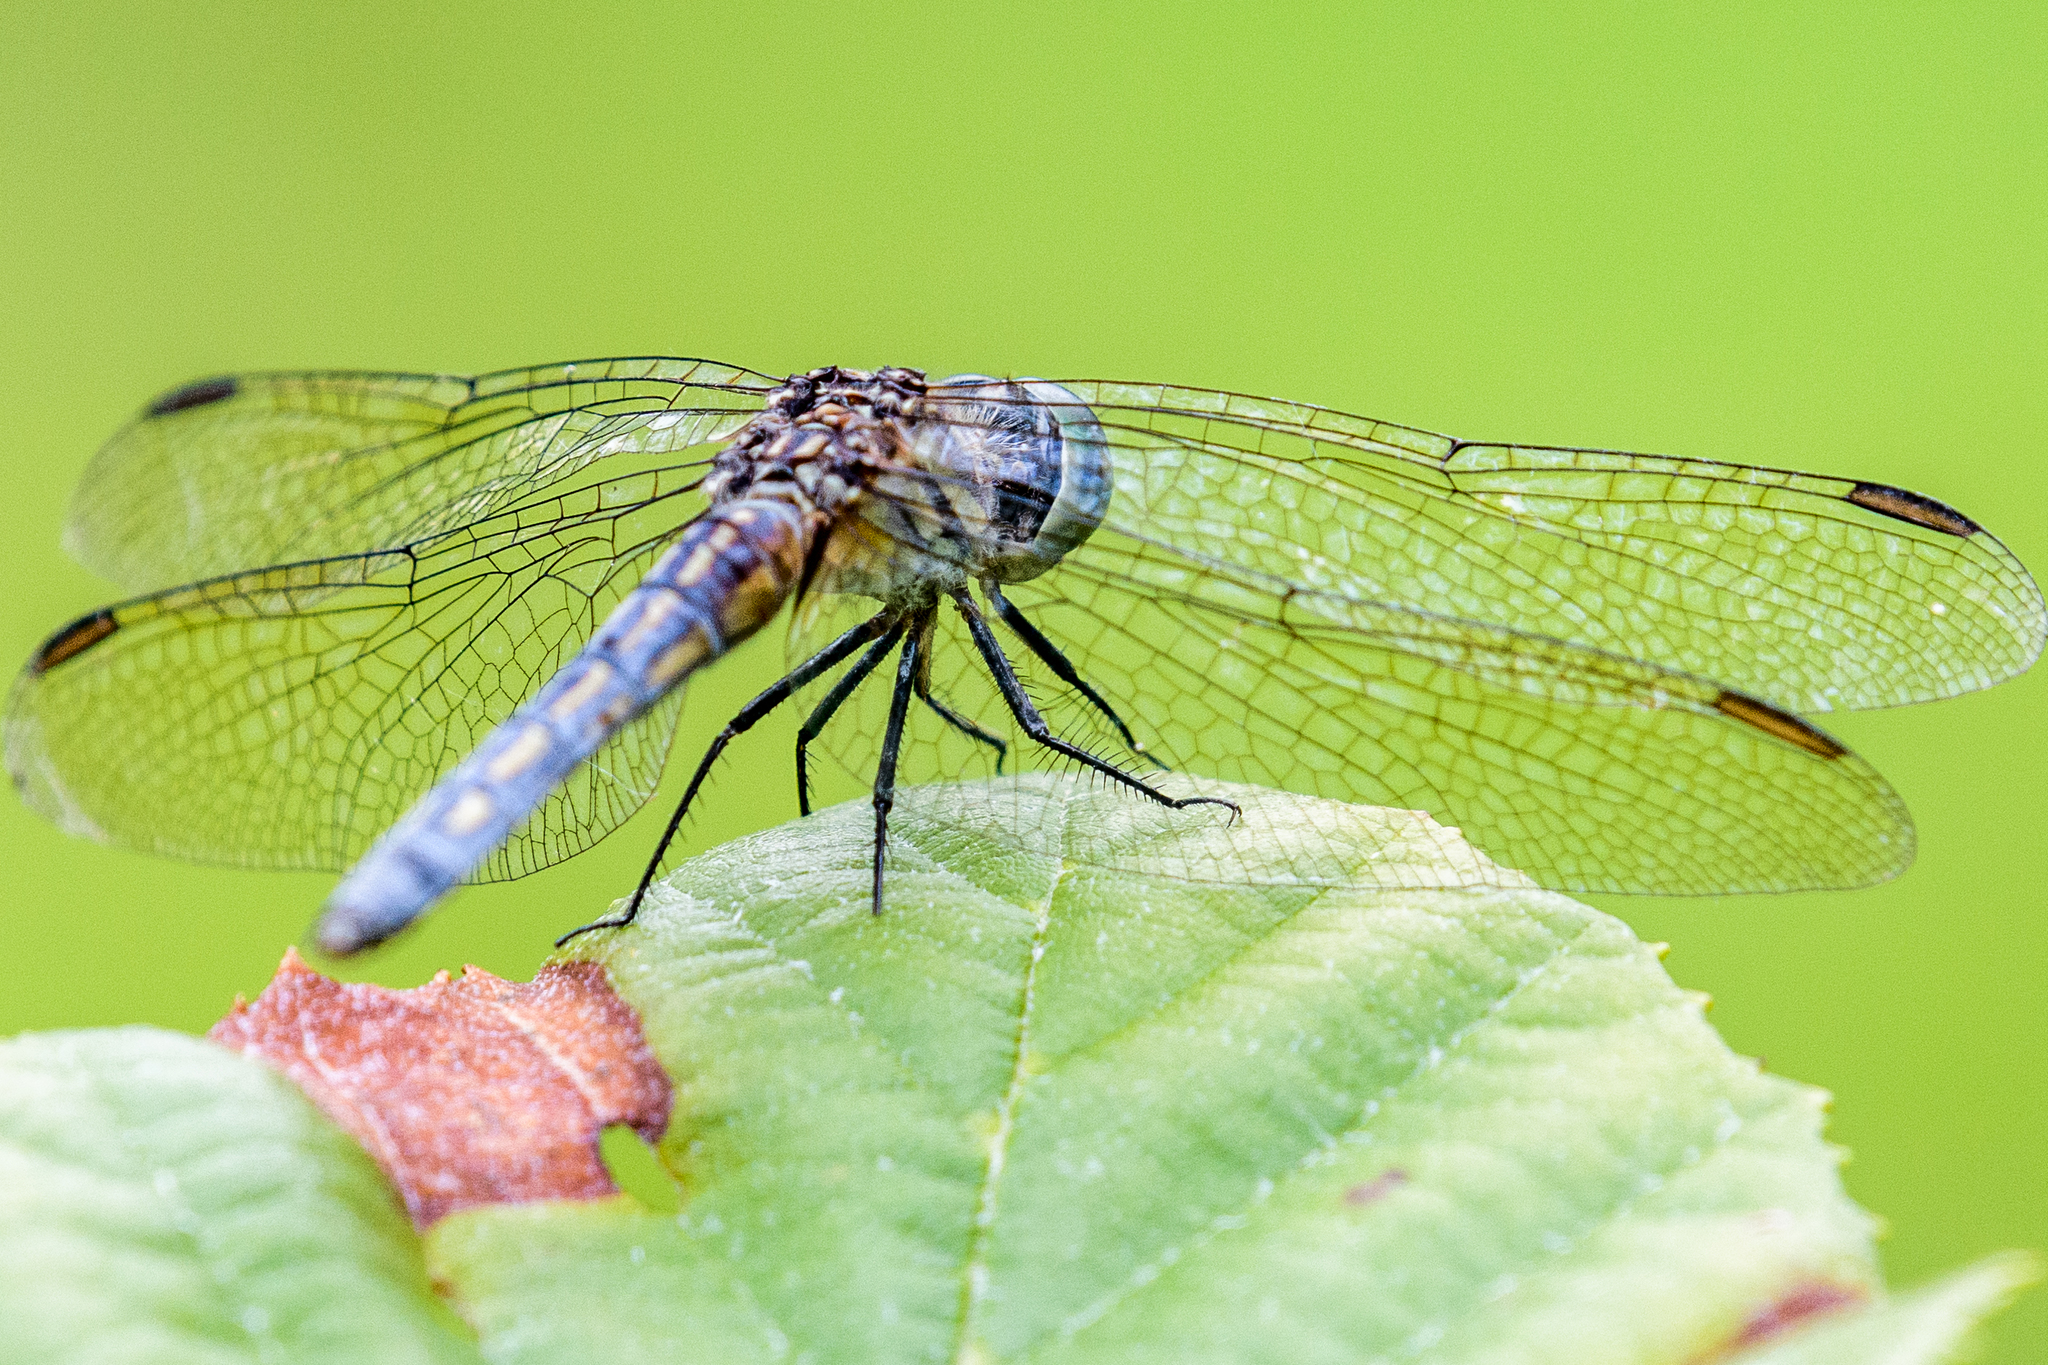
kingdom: Animalia
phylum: Arthropoda
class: Insecta
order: Odonata
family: Libellulidae
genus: Pachydiplax
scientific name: Pachydiplax longipennis
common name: Blue dasher
